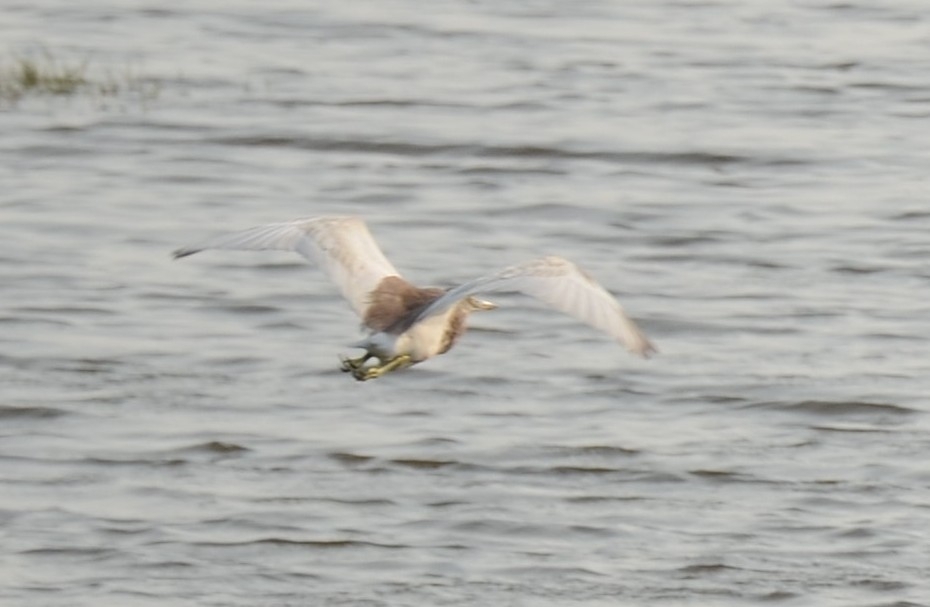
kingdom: Animalia
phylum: Chordata
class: Aves
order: Pelecaniformes
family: Ardeidae
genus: Ardeola
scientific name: Ardeola grayii
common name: Indian pond heron
